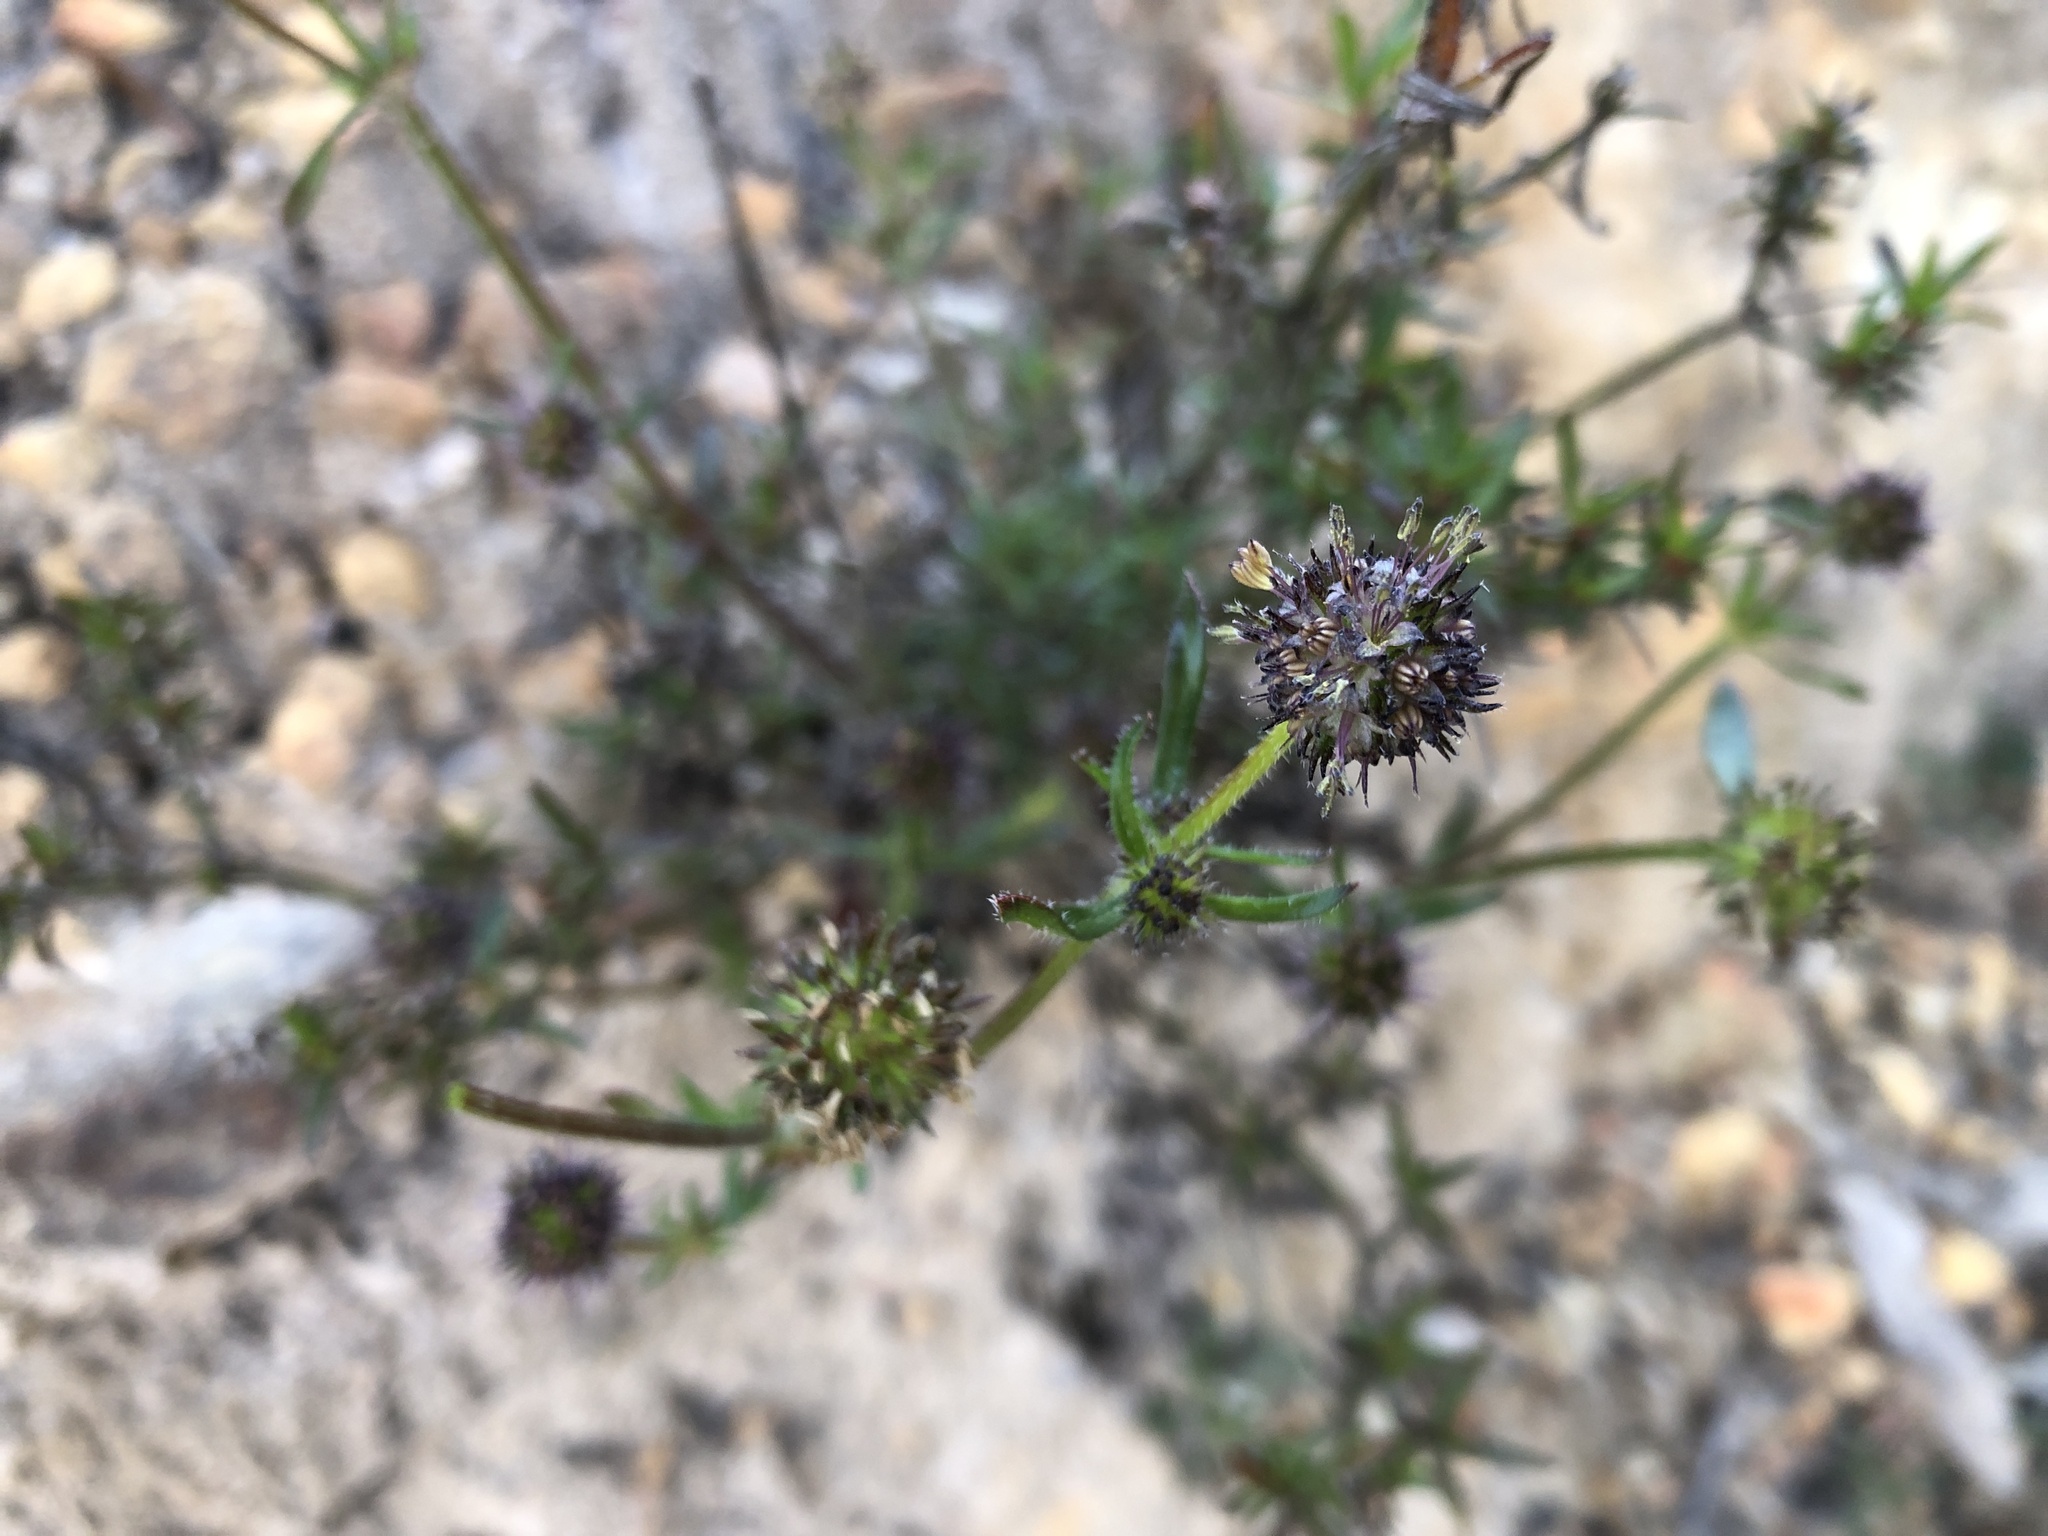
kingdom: Plantae
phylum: Tracheophyta
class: Magnoliopsida
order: Gentianales
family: Rubiaceae
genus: Opercularia
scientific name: Opercularia scabrida
